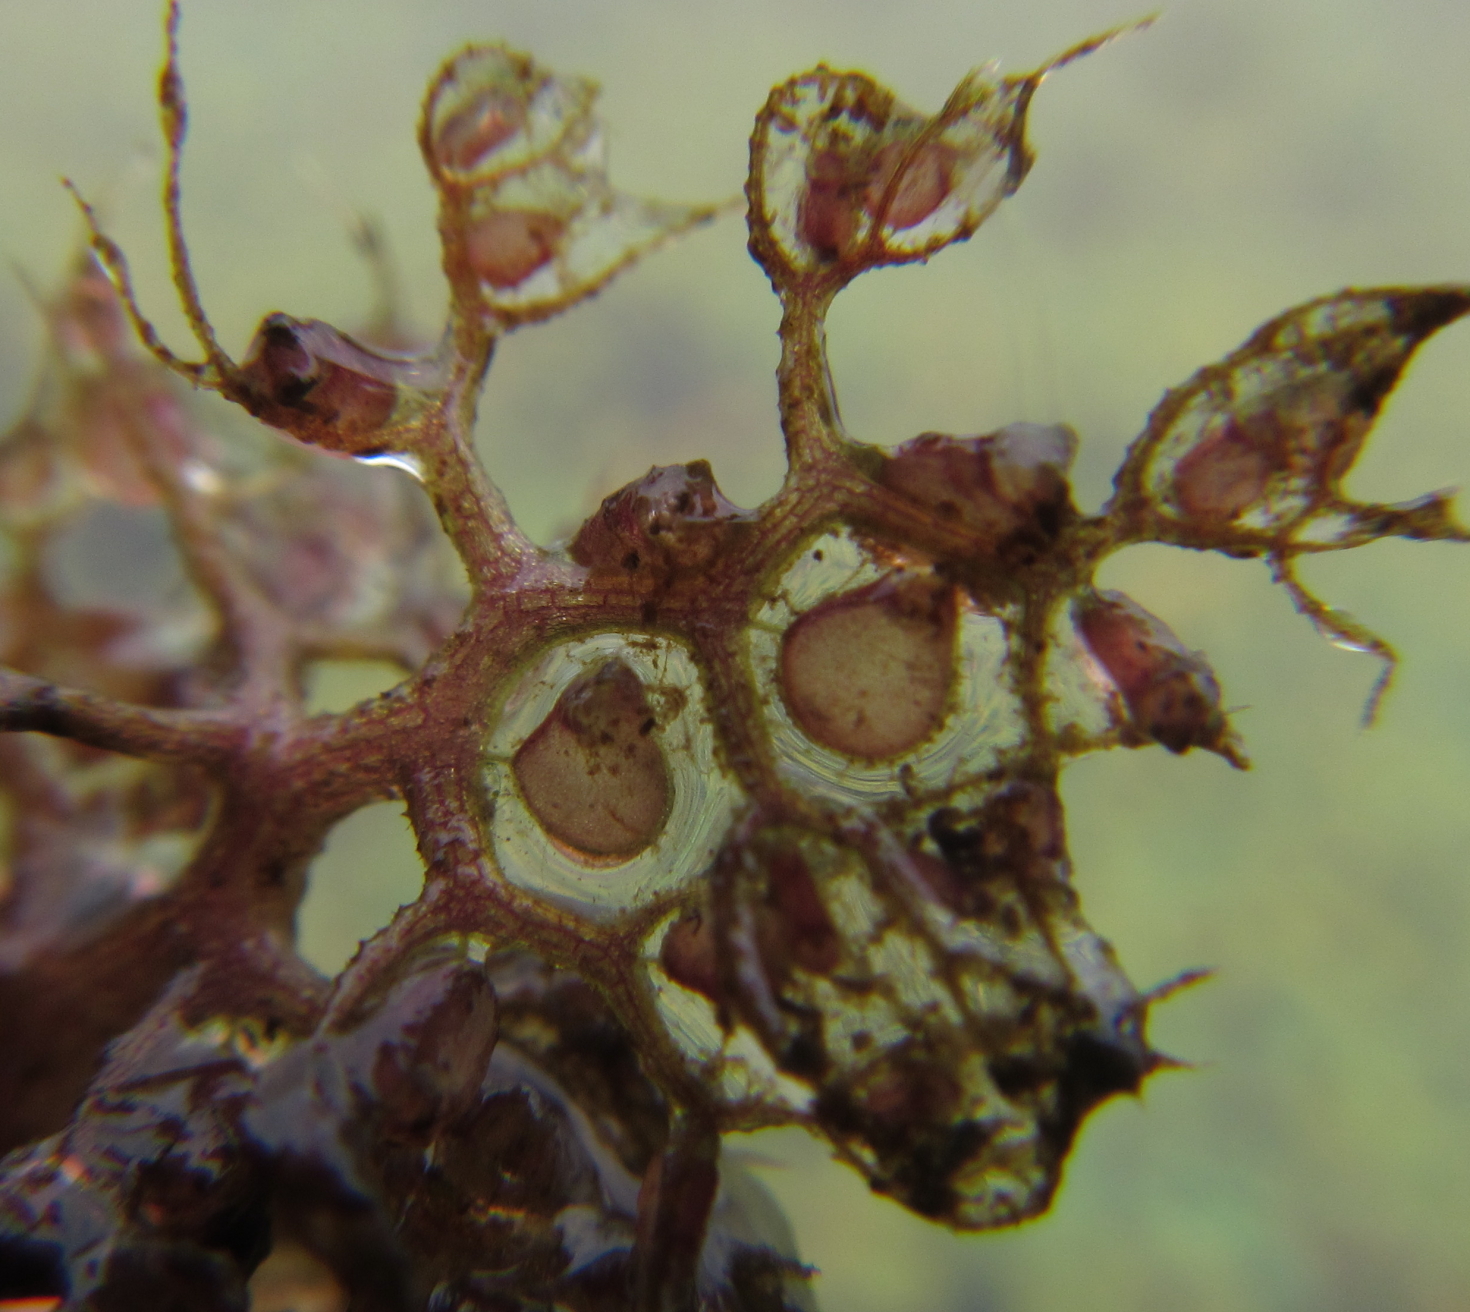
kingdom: Plantae
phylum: Tracheophyta
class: Magnoliopsida
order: Lamiales
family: Lentibulariaceae
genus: Utricularia
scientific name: Utricularia reflexa
